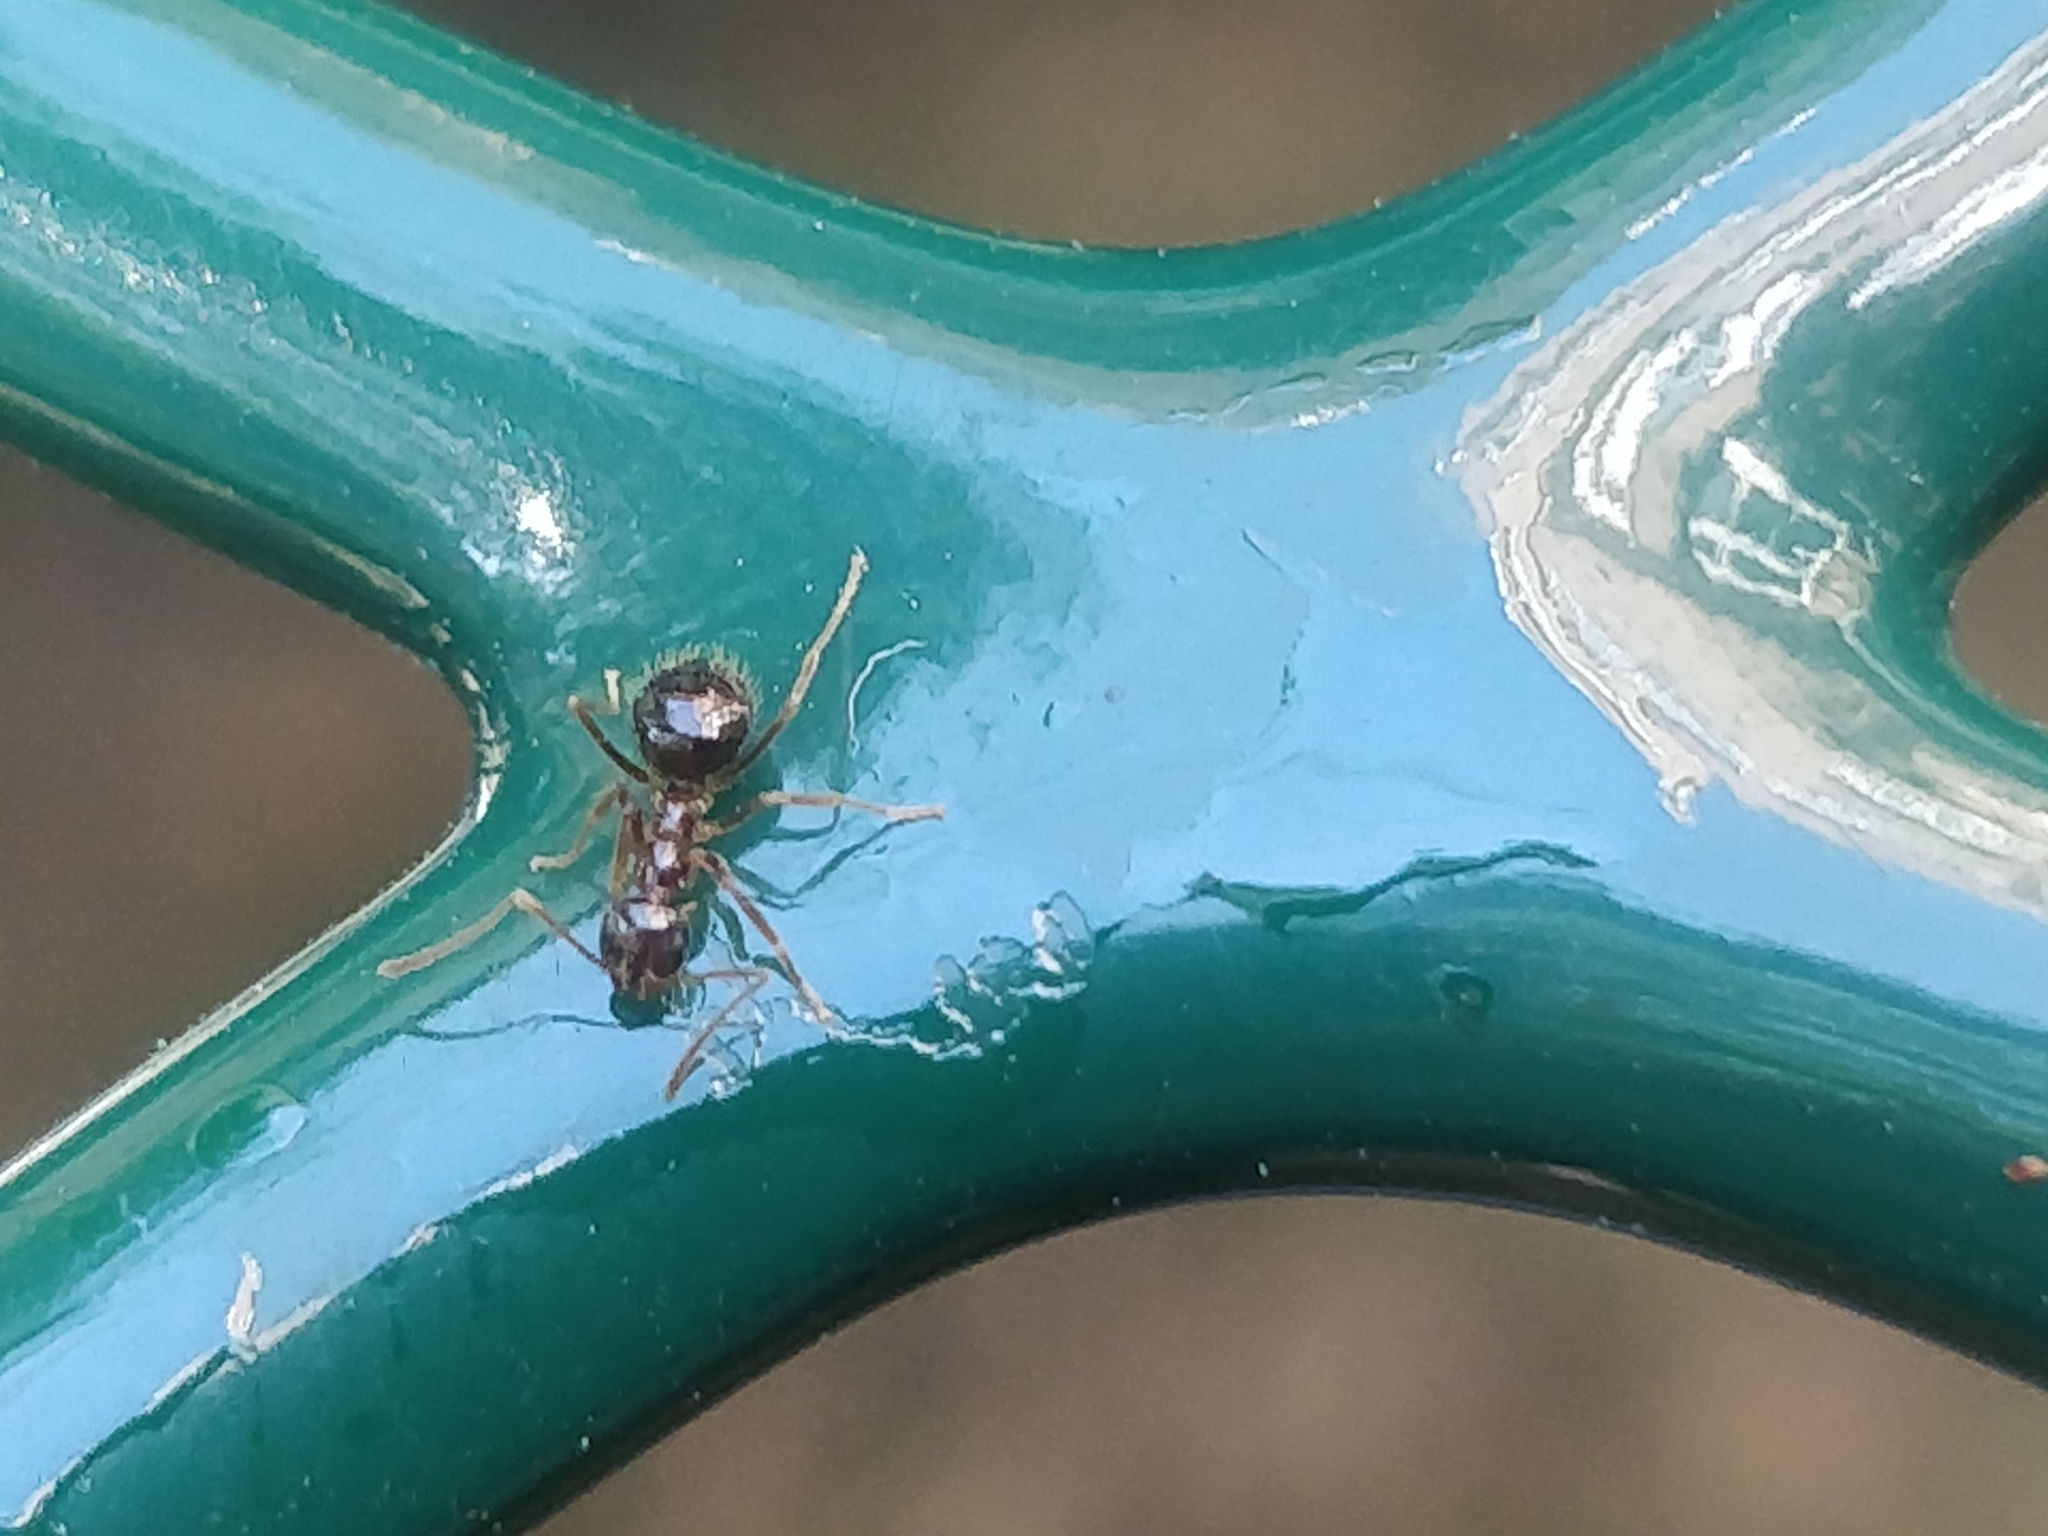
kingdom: Animalia
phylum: Arthropoda
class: Insecta
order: Hymenoptera
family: Formicidae
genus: Prenolepis
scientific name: Prenolepis imparis
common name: Small honey ant
